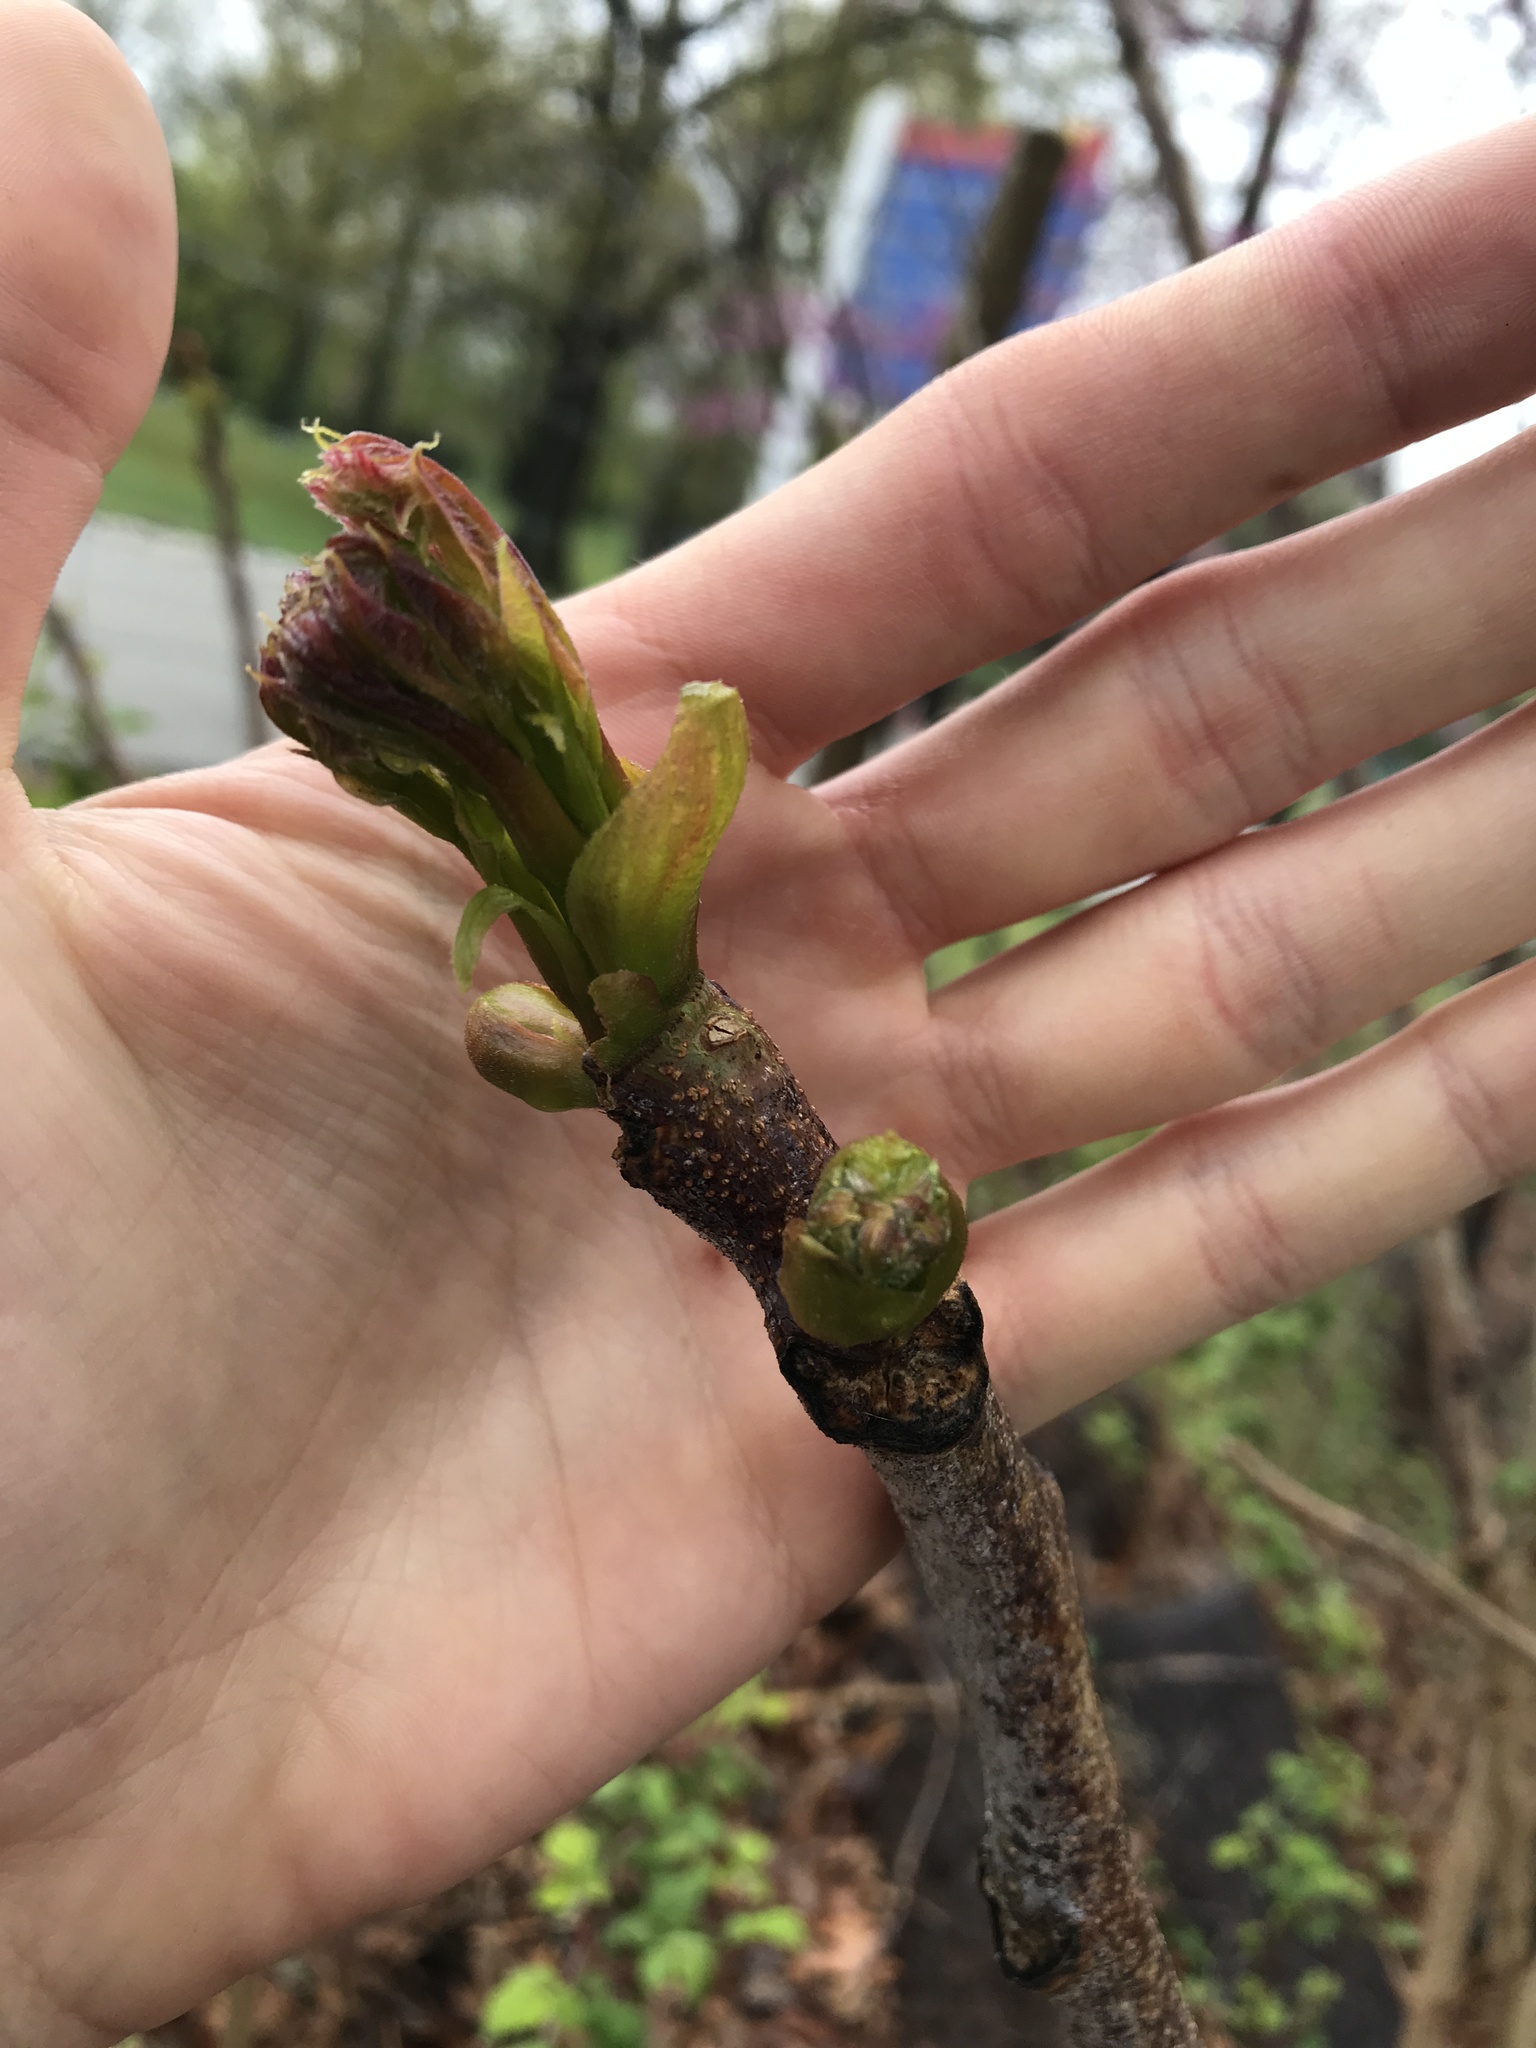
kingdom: Plantae
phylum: Tracheophyta
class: Magnoliopsida
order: Fabales
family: Fabaceae
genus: Gymnocladus
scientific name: Gymnocladus dioicus
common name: Kentucky coffee-tree
